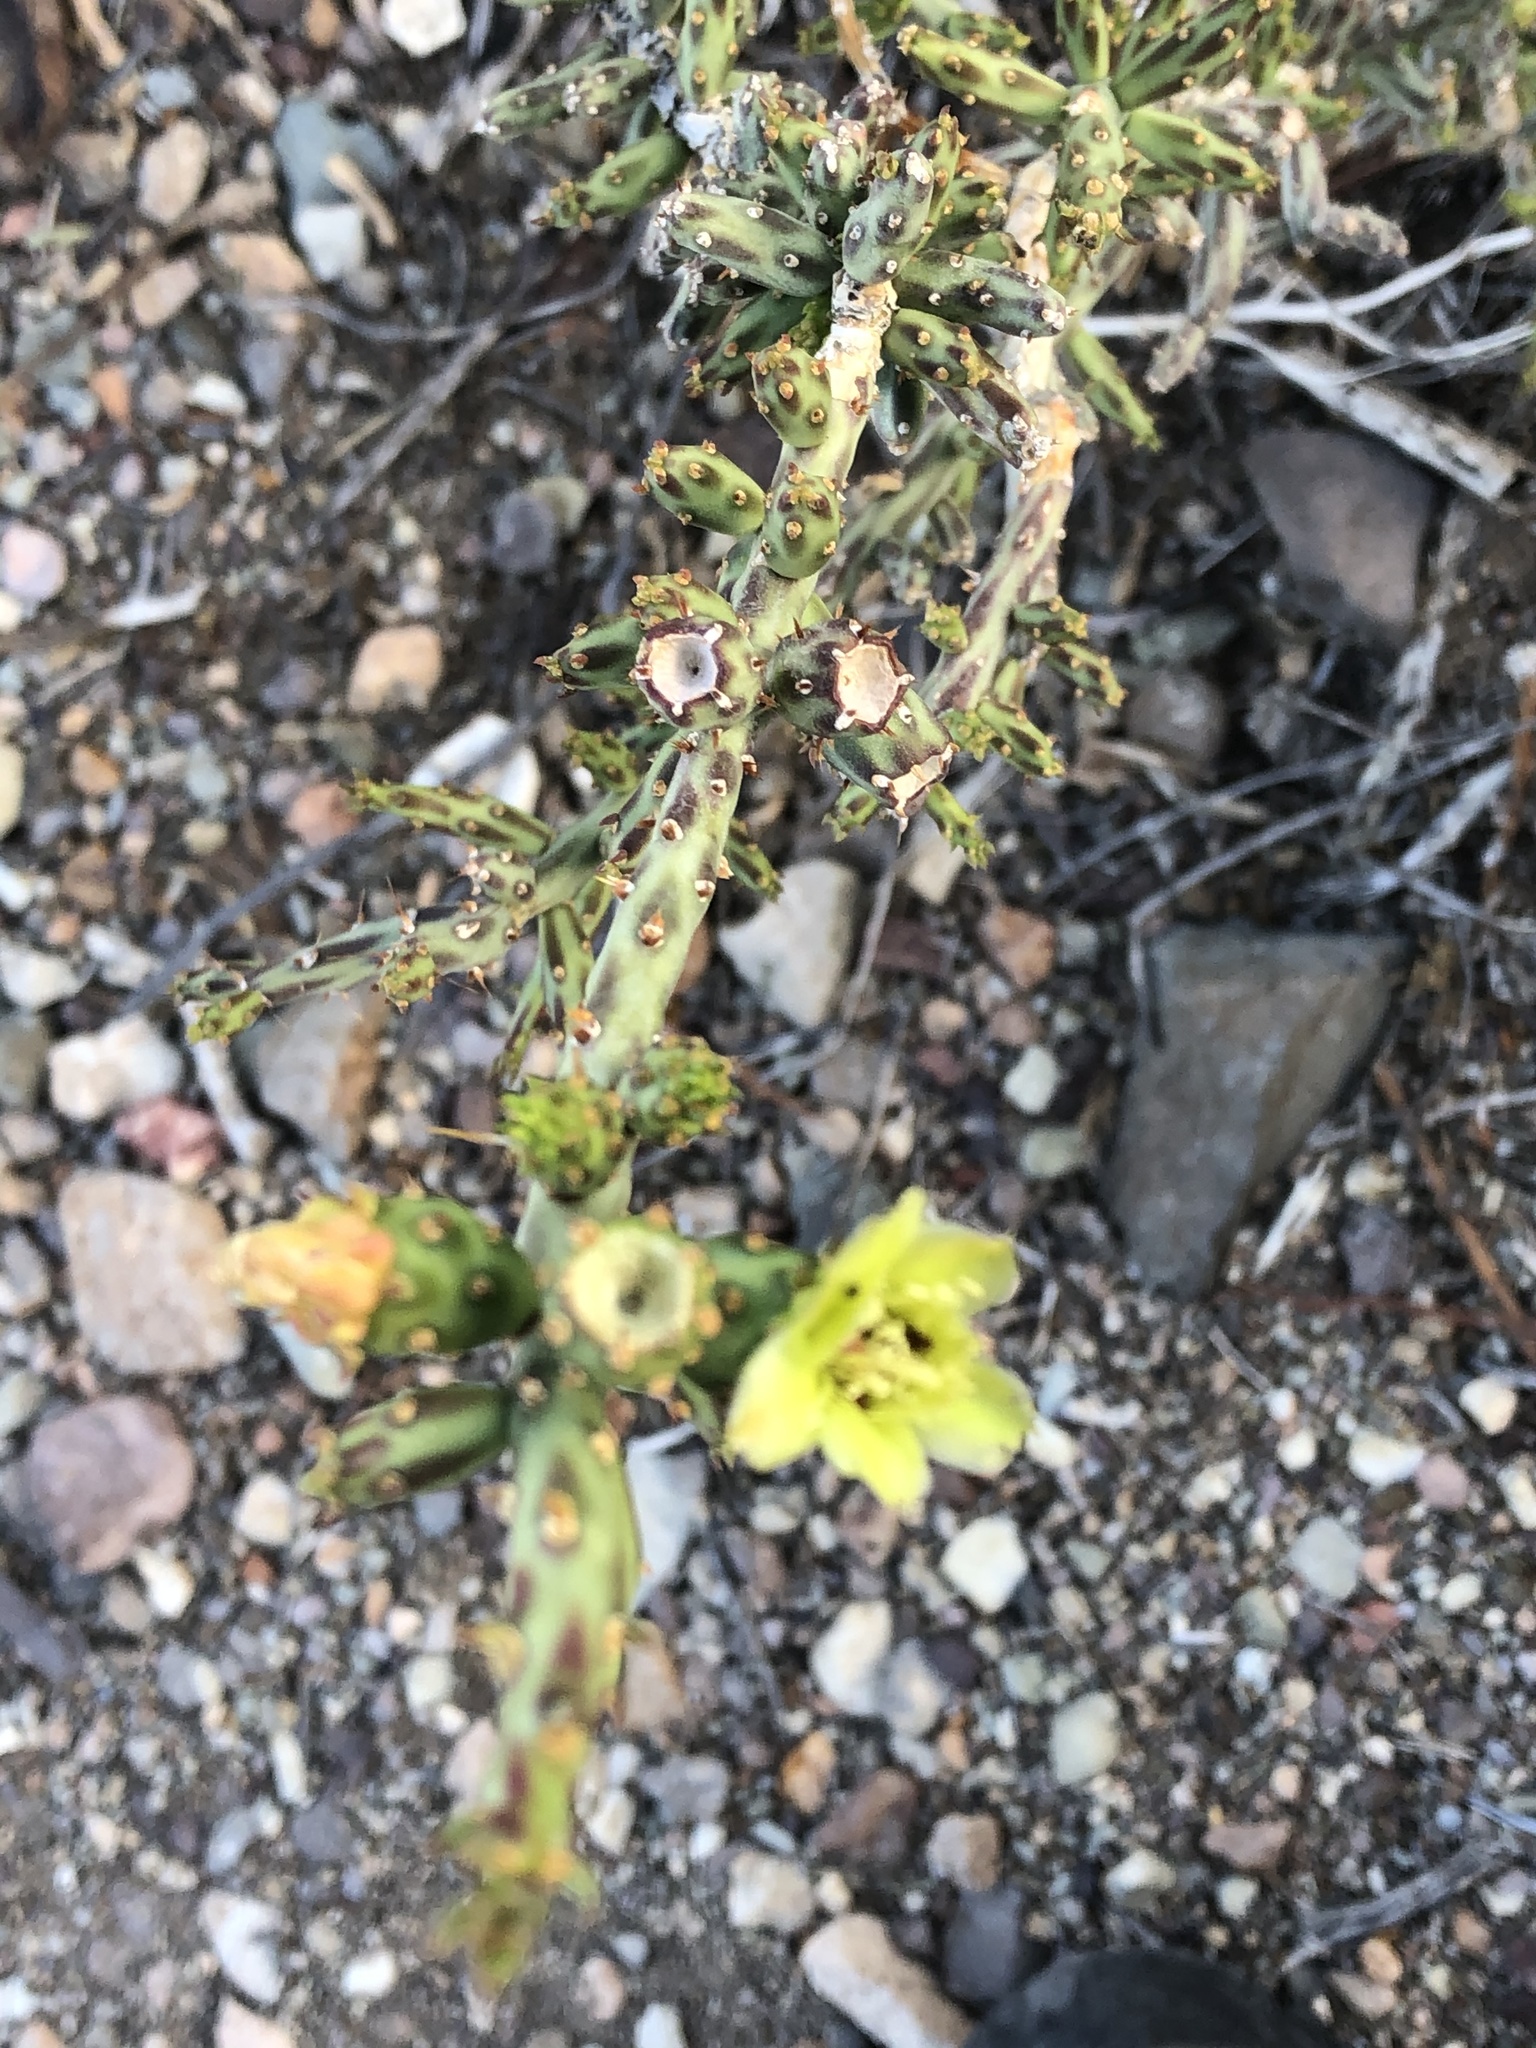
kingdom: Plantae
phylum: Tracheophyta
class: Magnoliopsida
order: Caryophyllales
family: Cactaceae
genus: Cylindropuntia
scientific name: Cylindropuntia leptocaulis
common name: Christmas cactus
